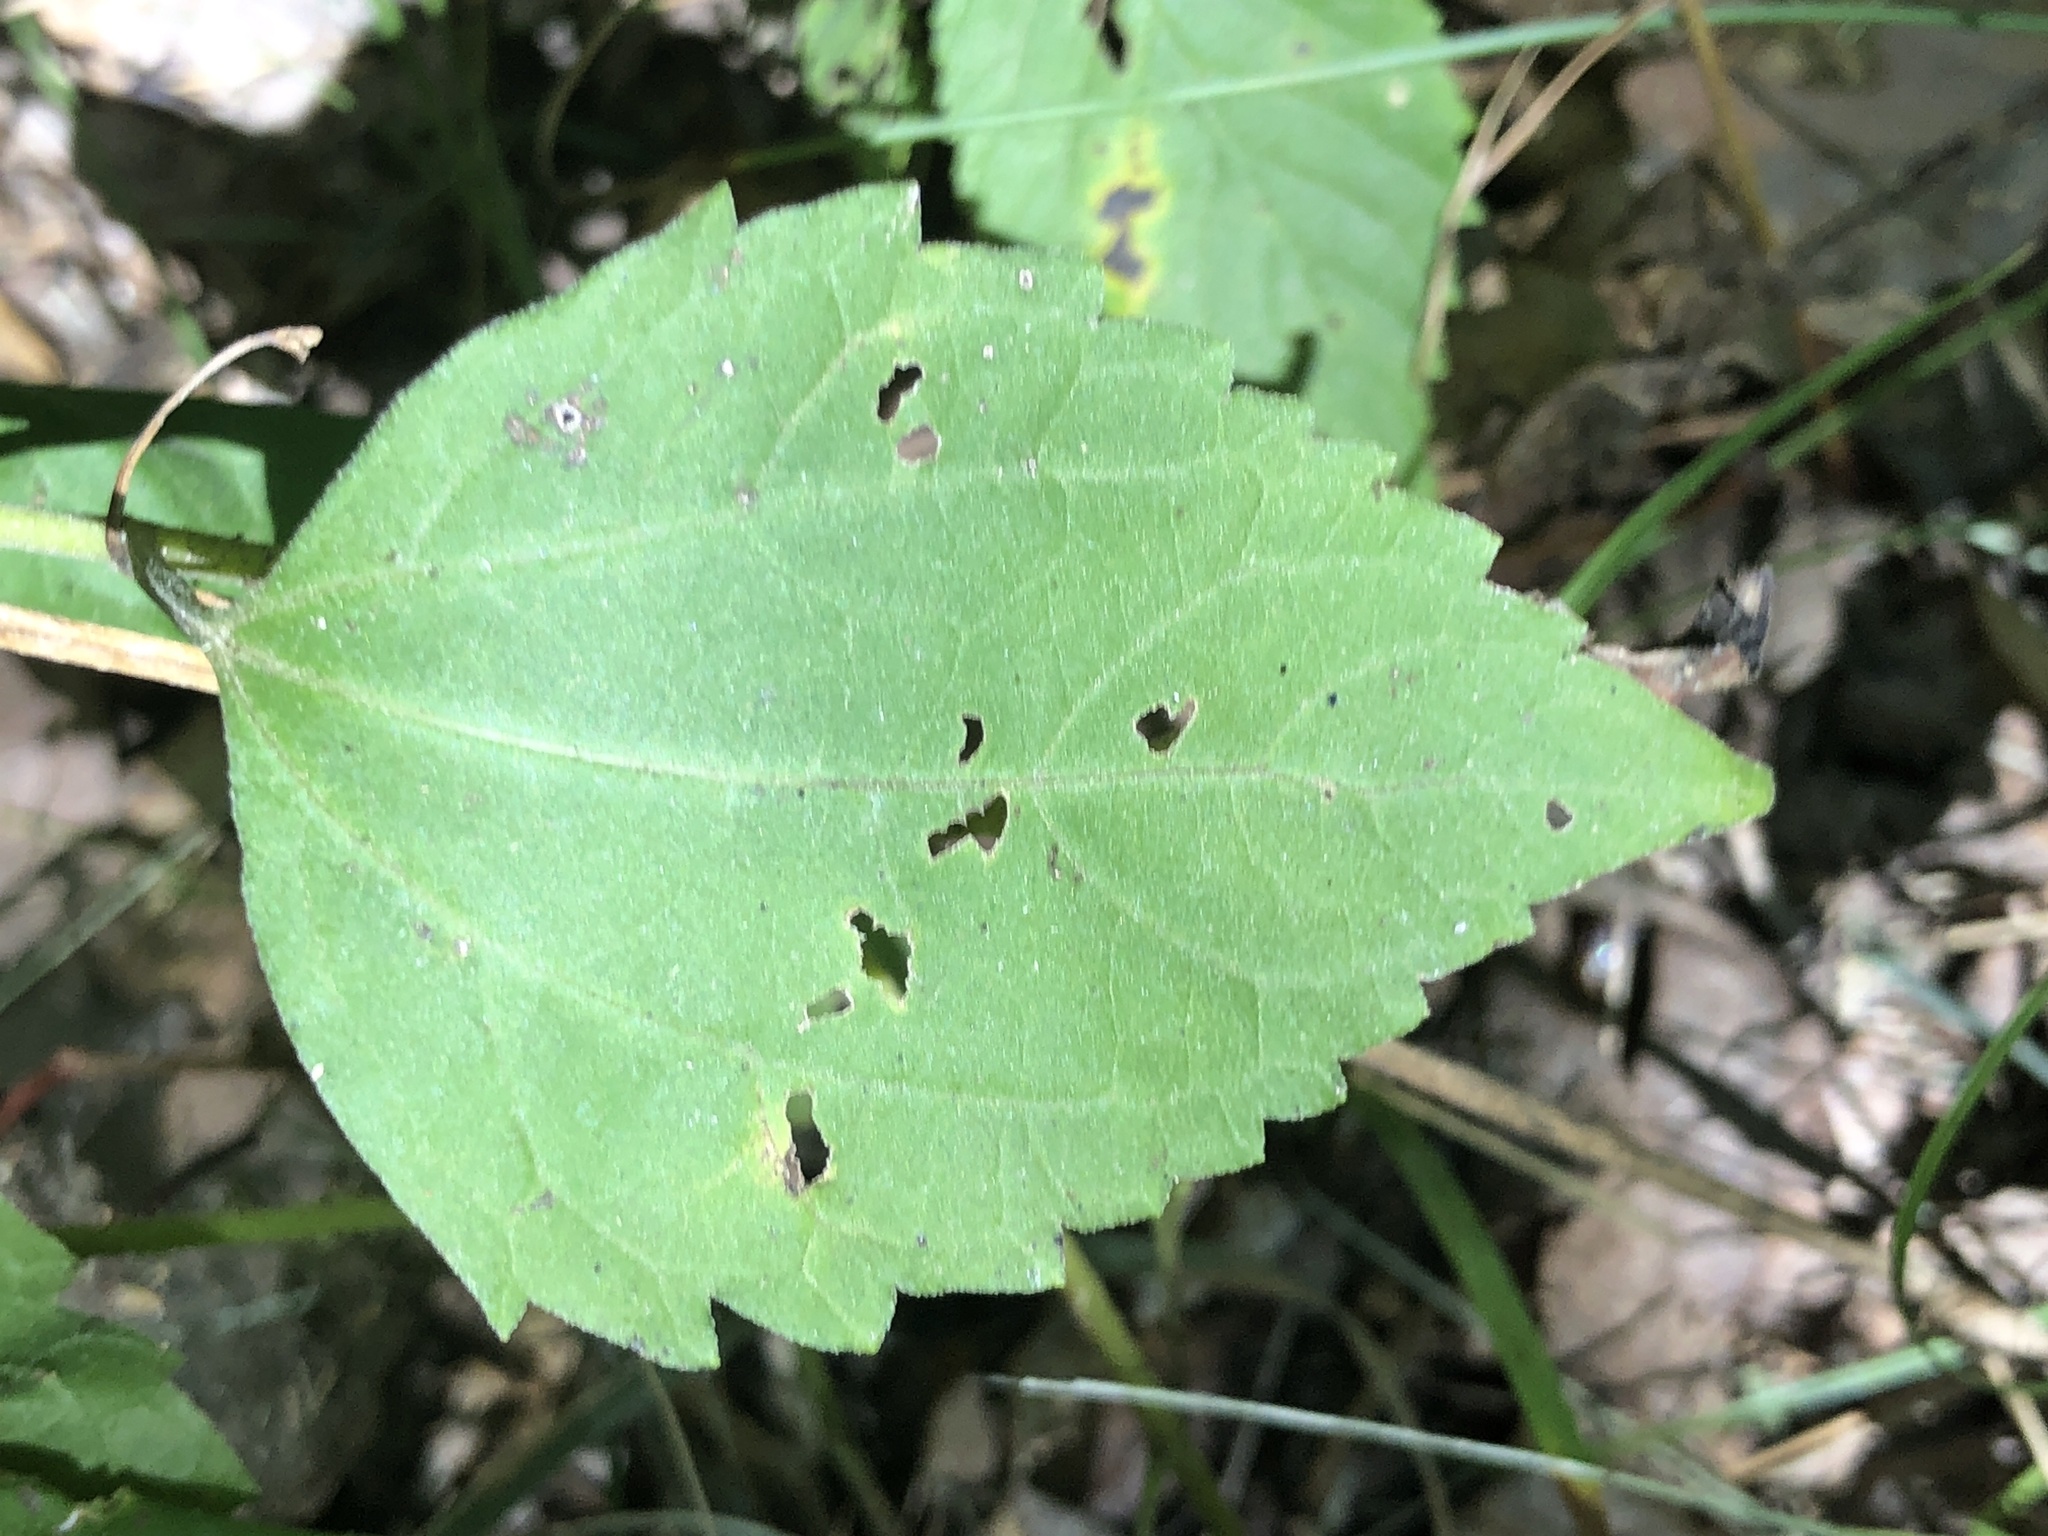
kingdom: Plantae
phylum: Tracheophyta
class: Magnoliopsida
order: Asterales
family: Asteraceae
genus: Ageratina
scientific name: Ageratina altissima
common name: White snakeroot
